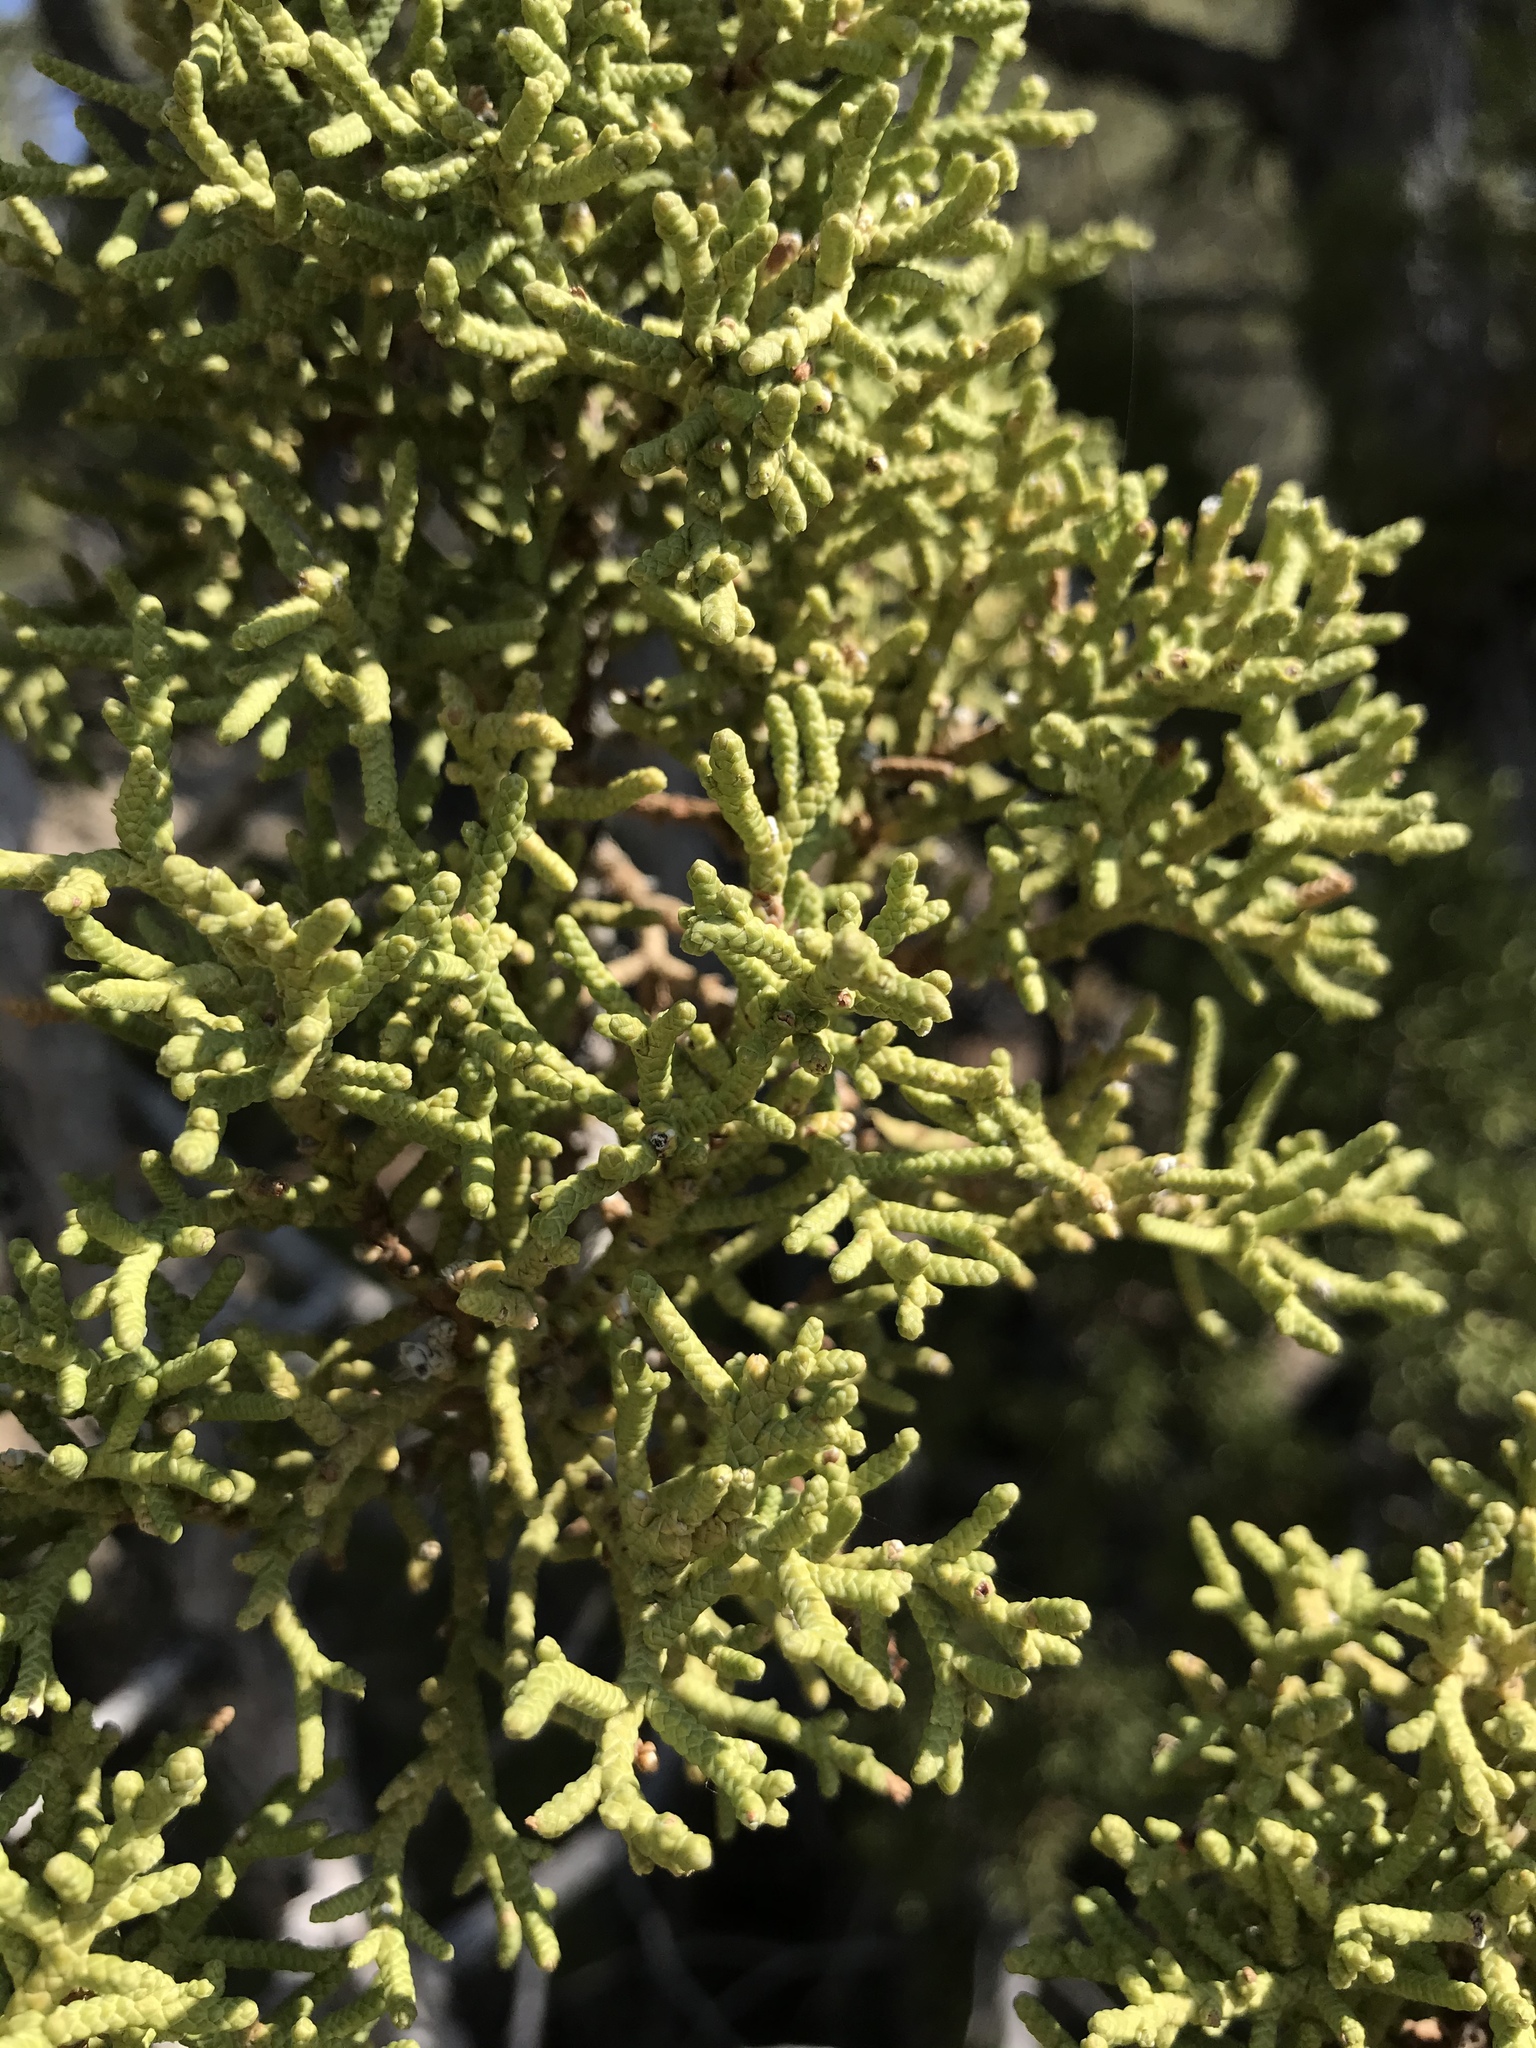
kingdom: Plantae
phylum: Tracheophyta
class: Pinopsida
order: Pinales
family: Cupressaceae
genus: Juniperus
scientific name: Juniperus osteosperma
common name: Utah juniper
